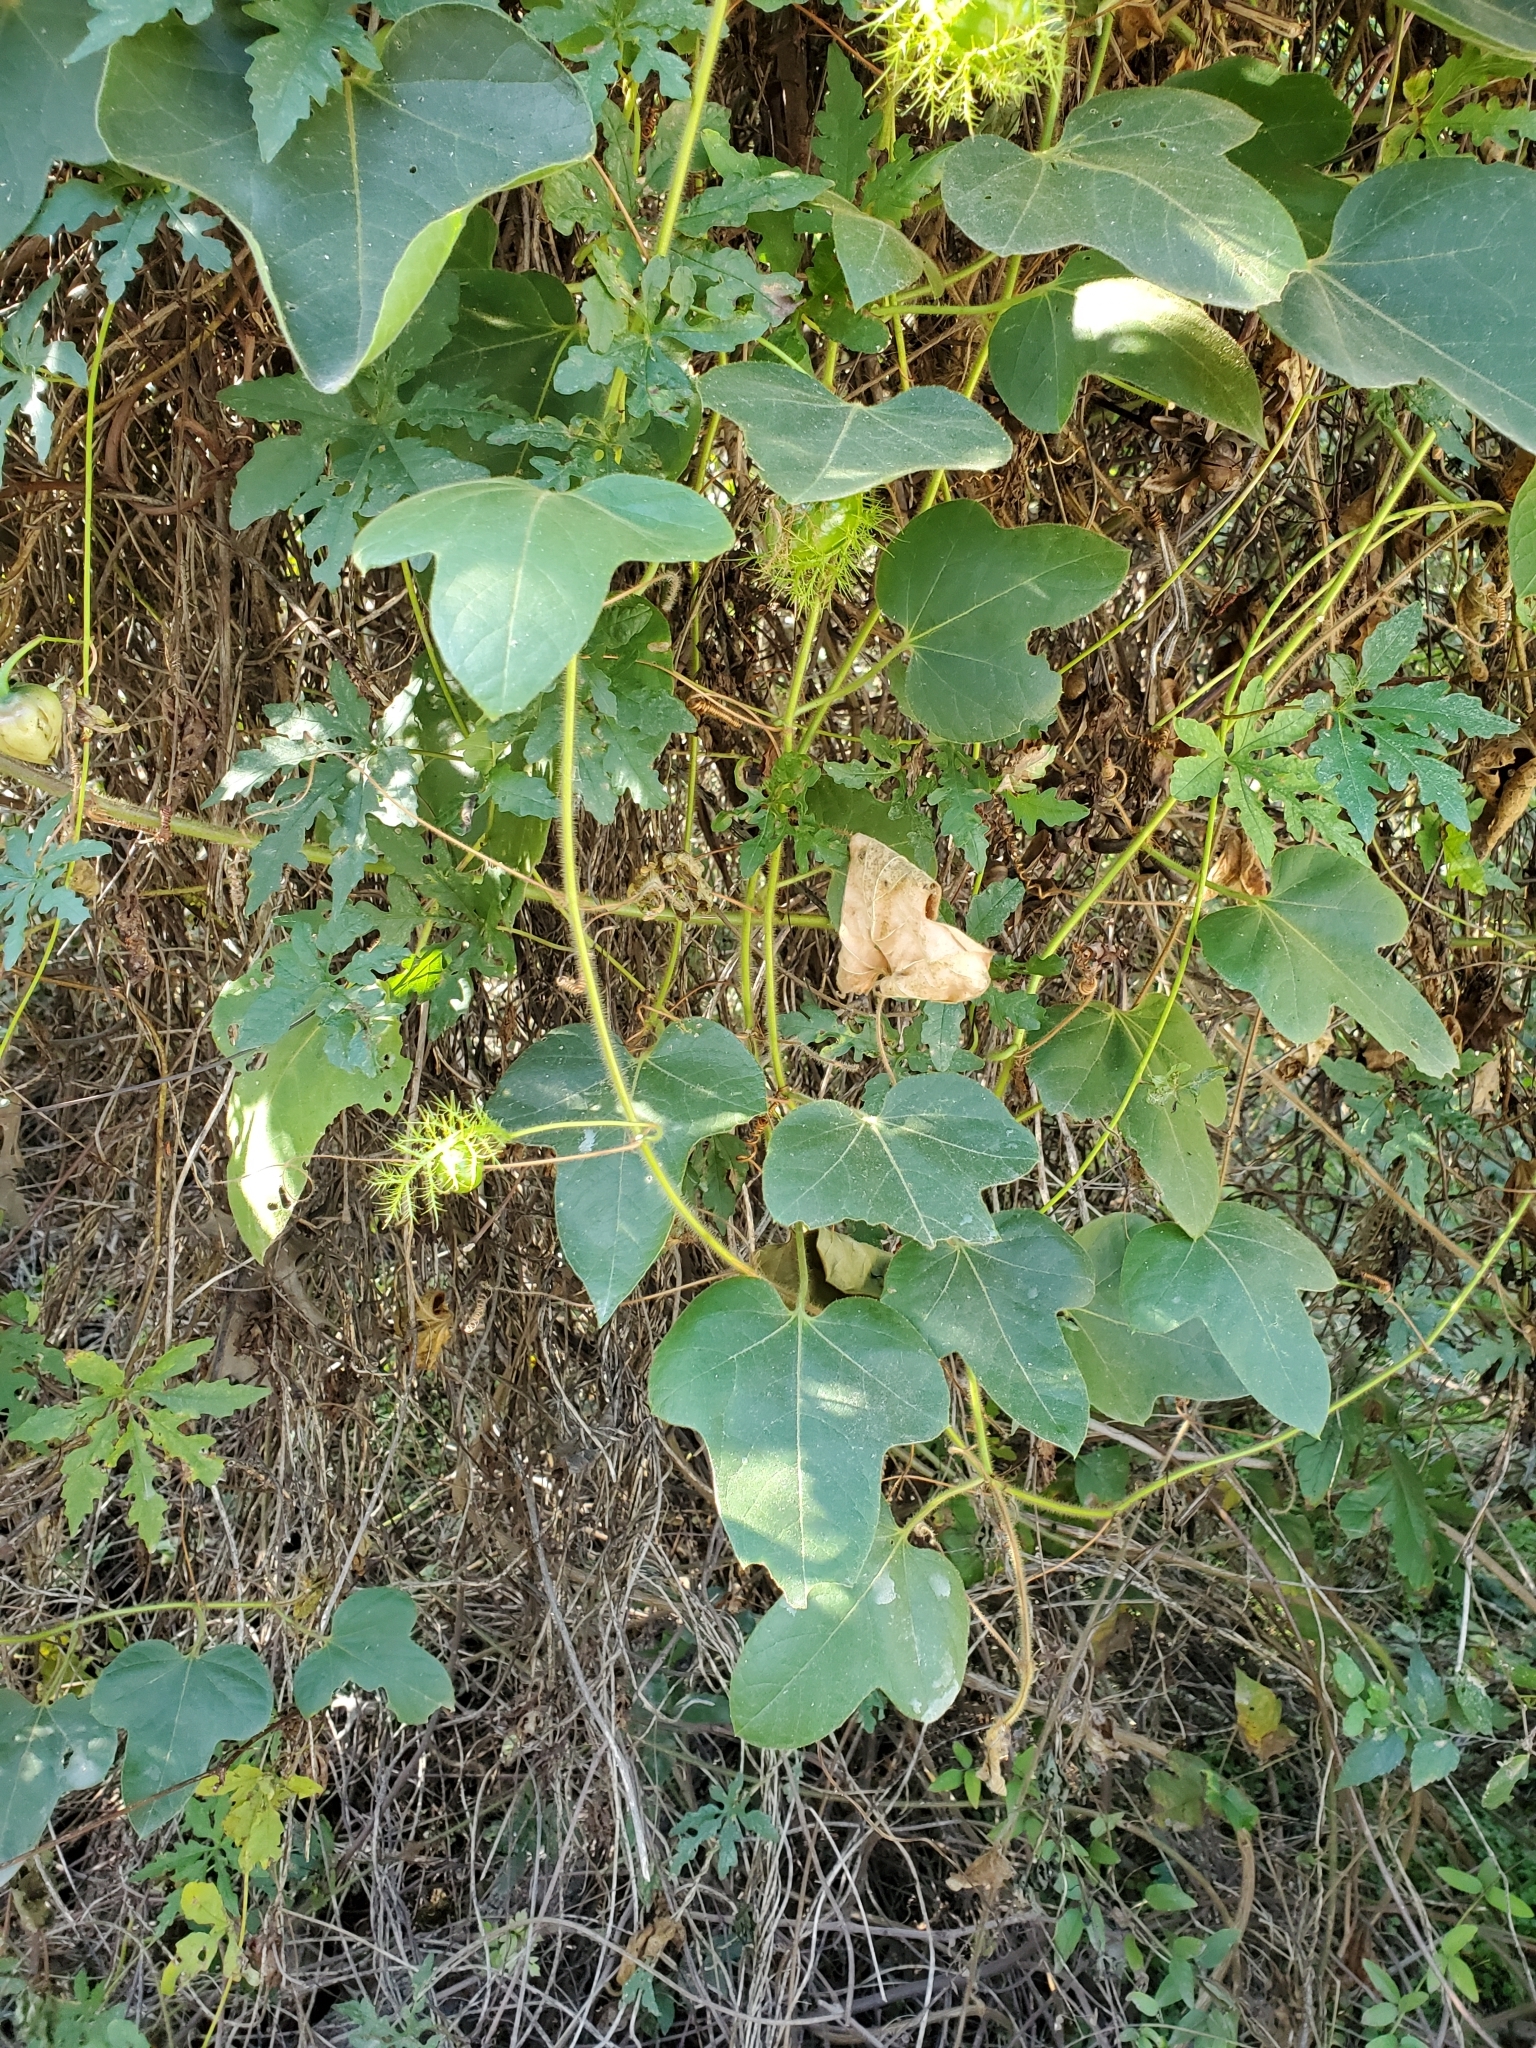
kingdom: Plantae
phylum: Tracheophyta
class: Magnoliopsida
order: Malpighiales
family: Passifloraceae
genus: Passiflora
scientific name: Passiflora
